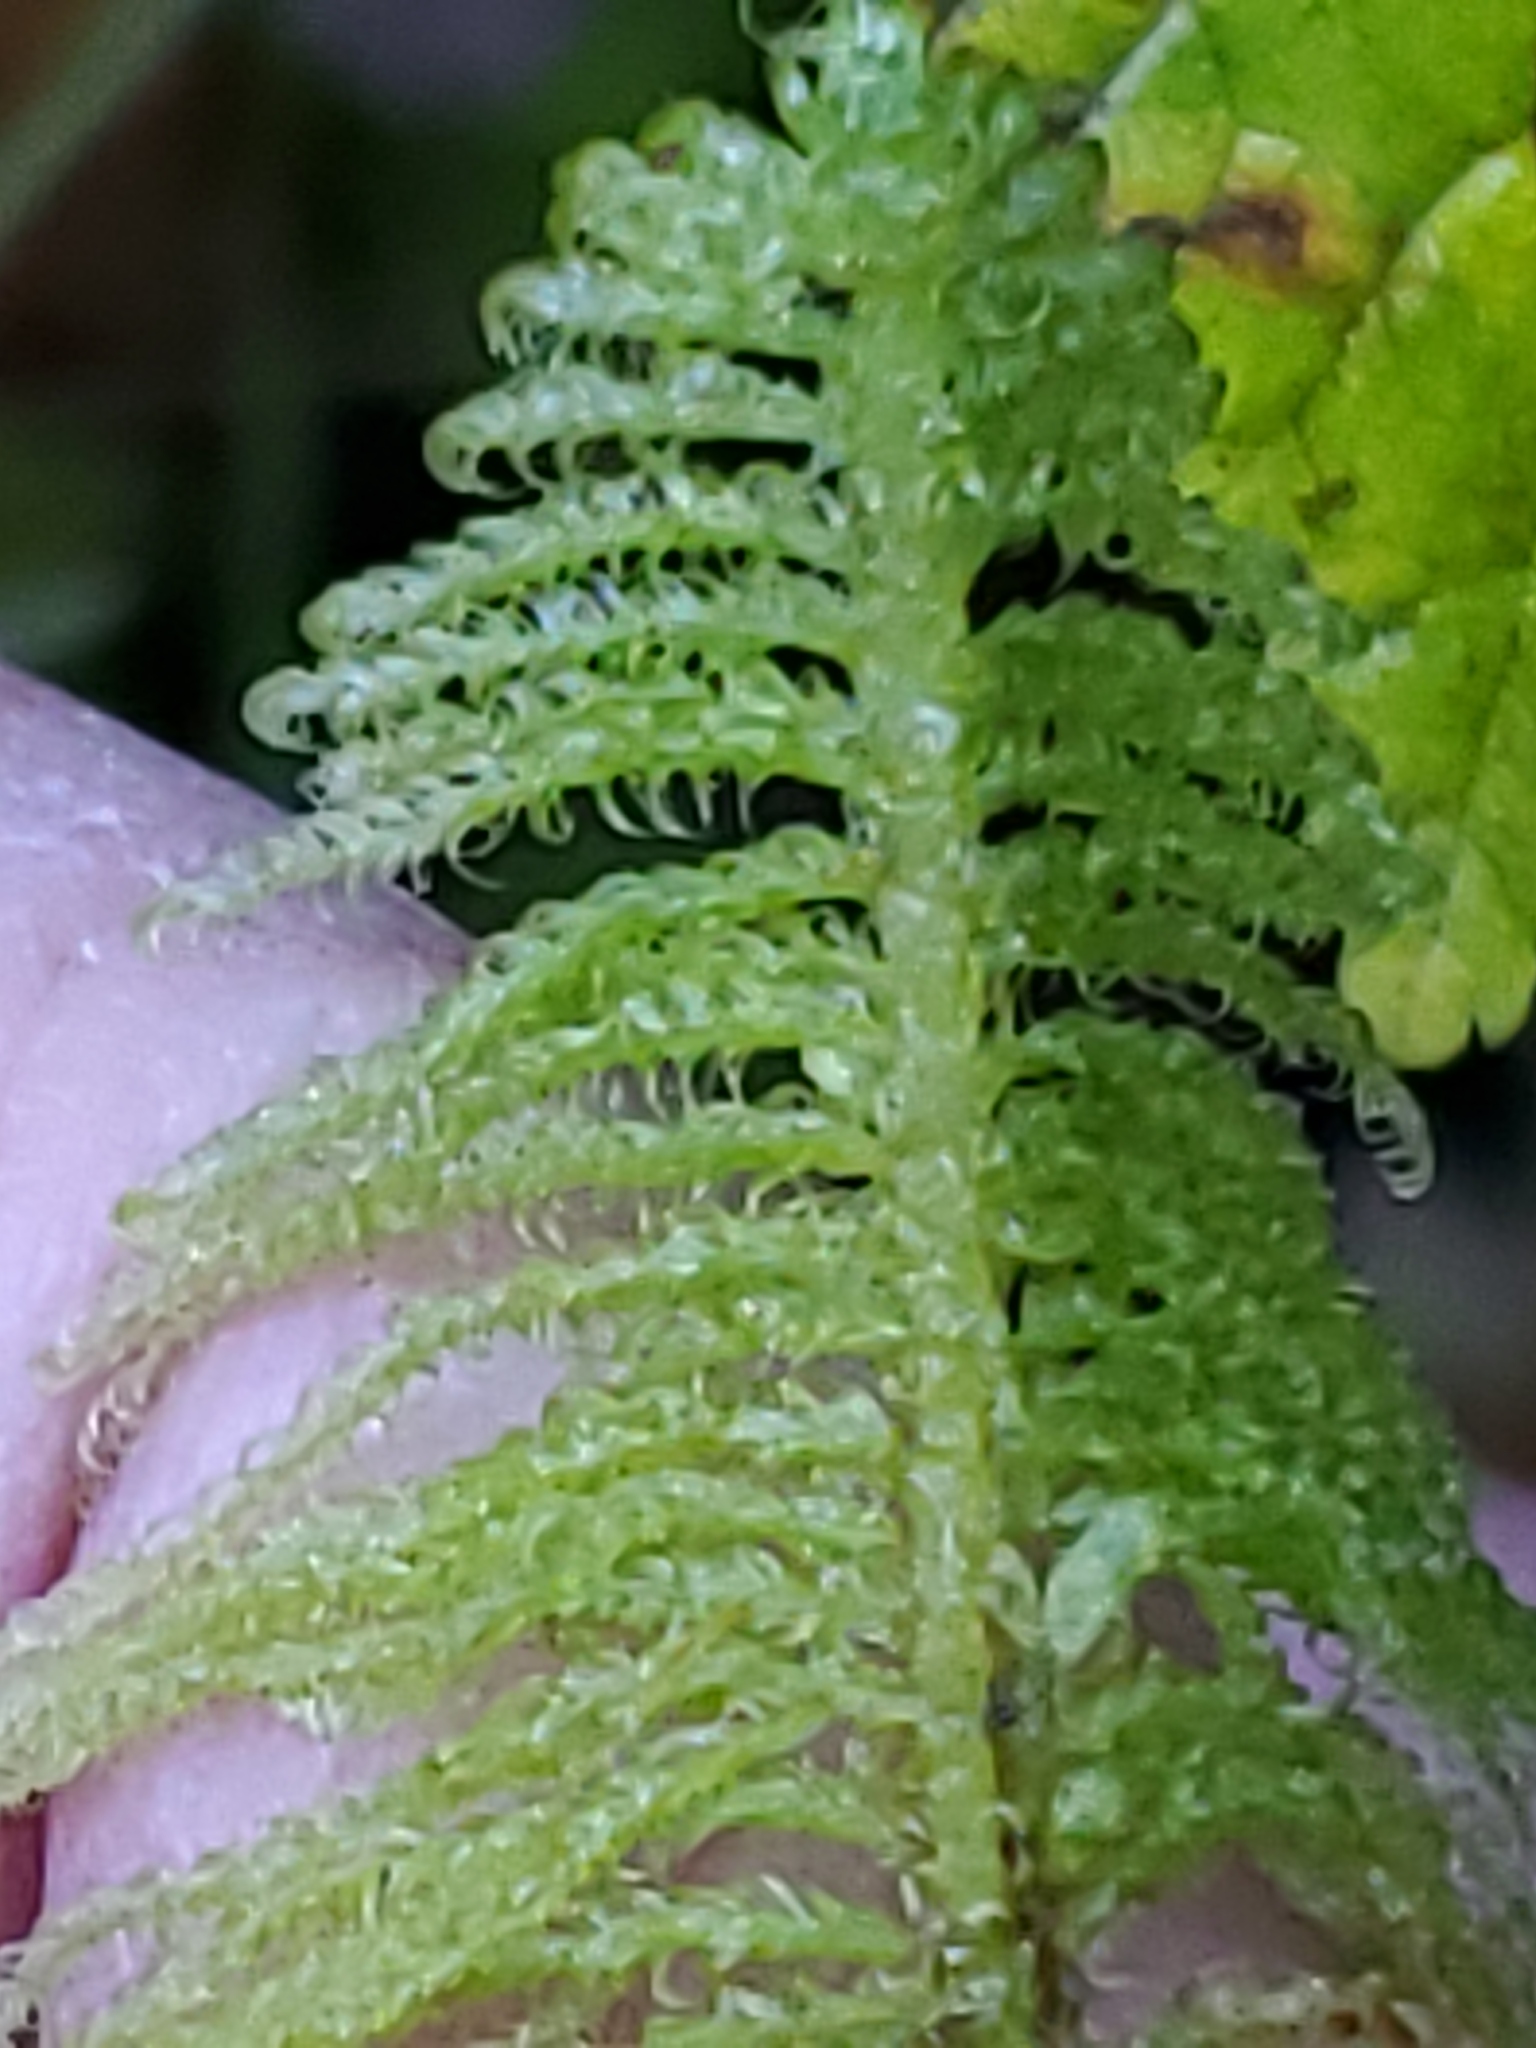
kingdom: Plantae
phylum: Bryophyta
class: Bryopsida
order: Hypnales
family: Pylaisiaceae
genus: Ptilium
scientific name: Ptilium crista-castrensis
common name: Knight's plume moss
